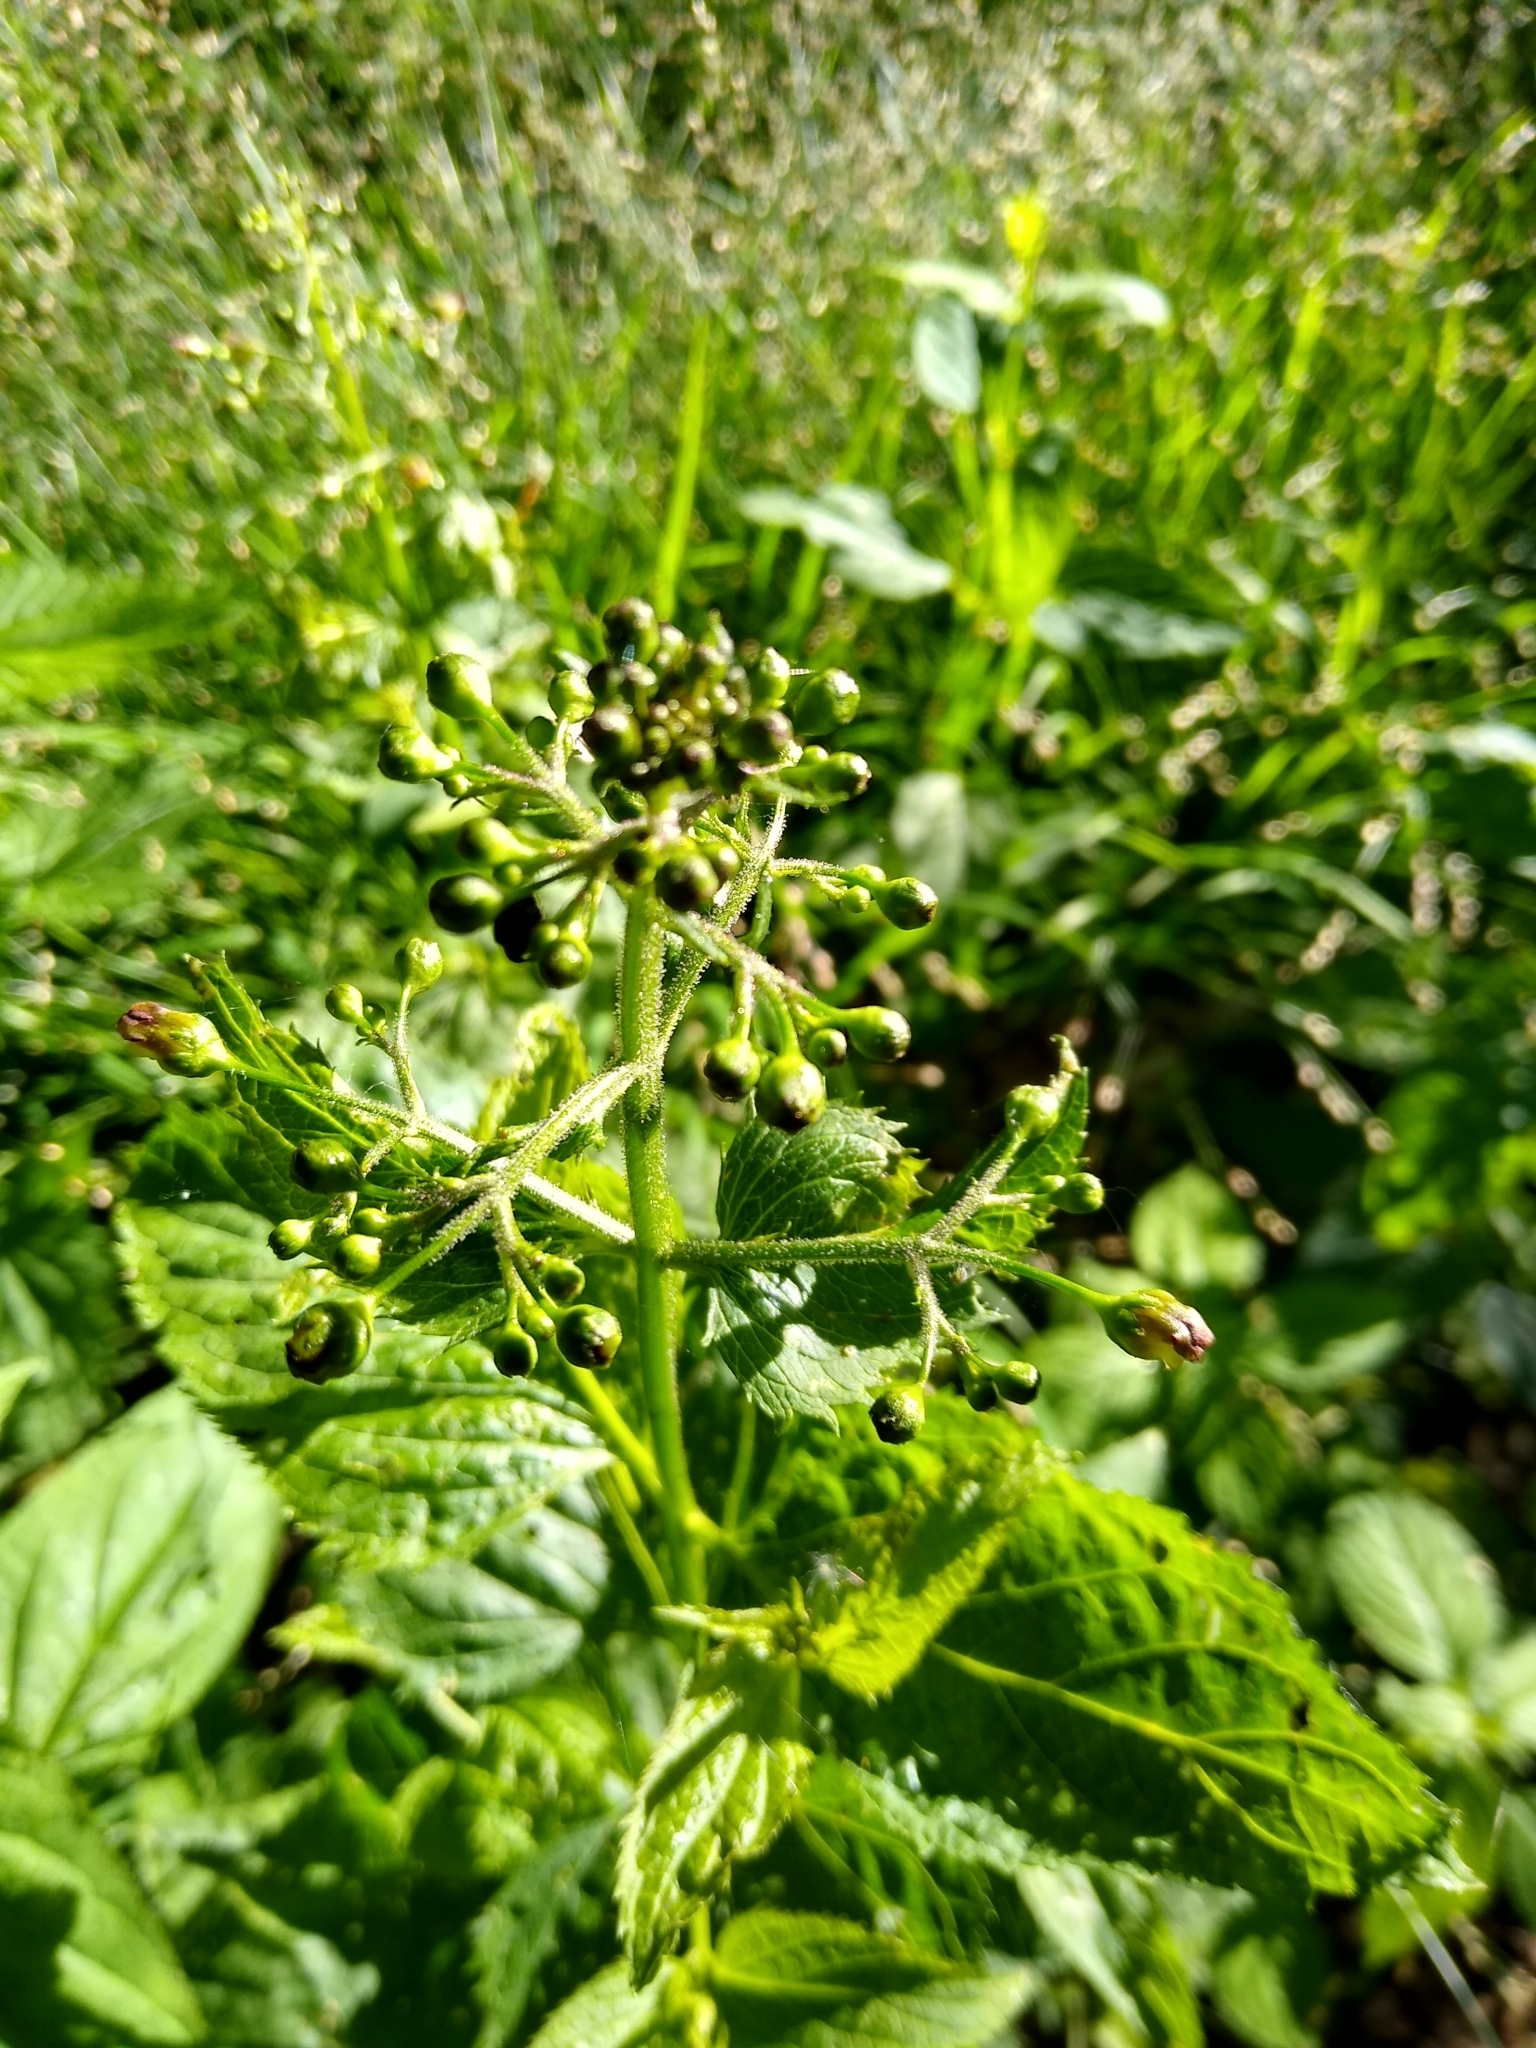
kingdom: Plantae
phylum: Tracheophyta
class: Magnoliopsida
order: Lamiales
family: Scrophulariaceae
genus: Scrophularia
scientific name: Scrophularia nodosa
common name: Common figwort
